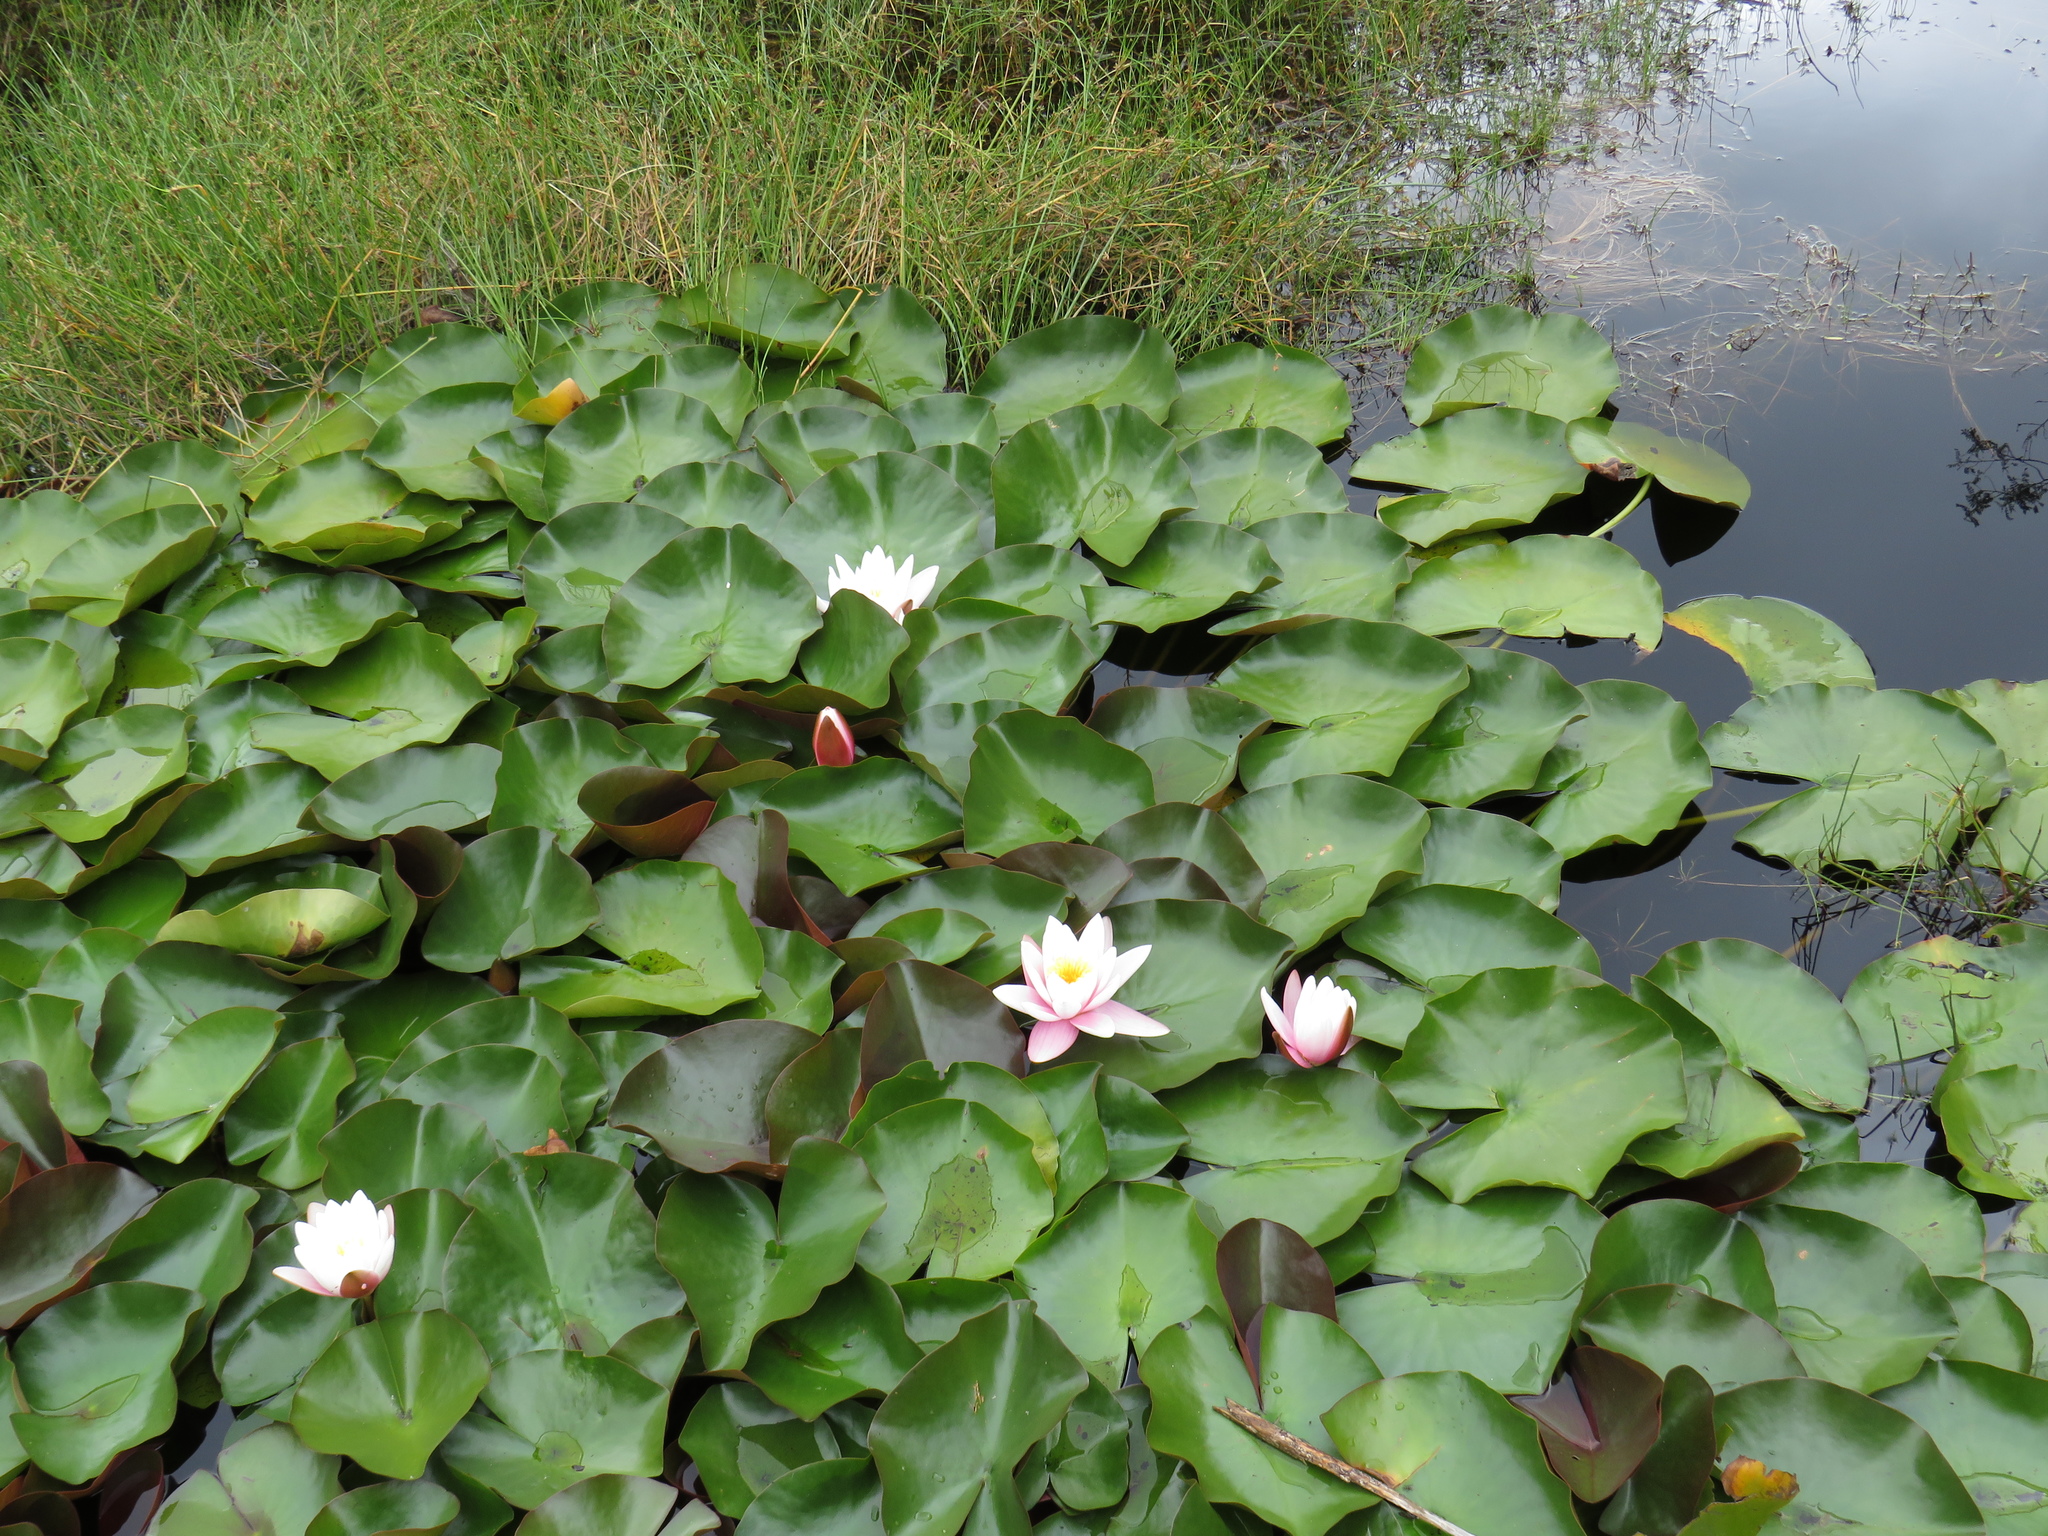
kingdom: Plantae
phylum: Tracheophyta
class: Magnoliopsida
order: Nymphaeales
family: Nymphaeaceae
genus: Nymphaea
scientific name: Nymphaea alba
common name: White water-lily
